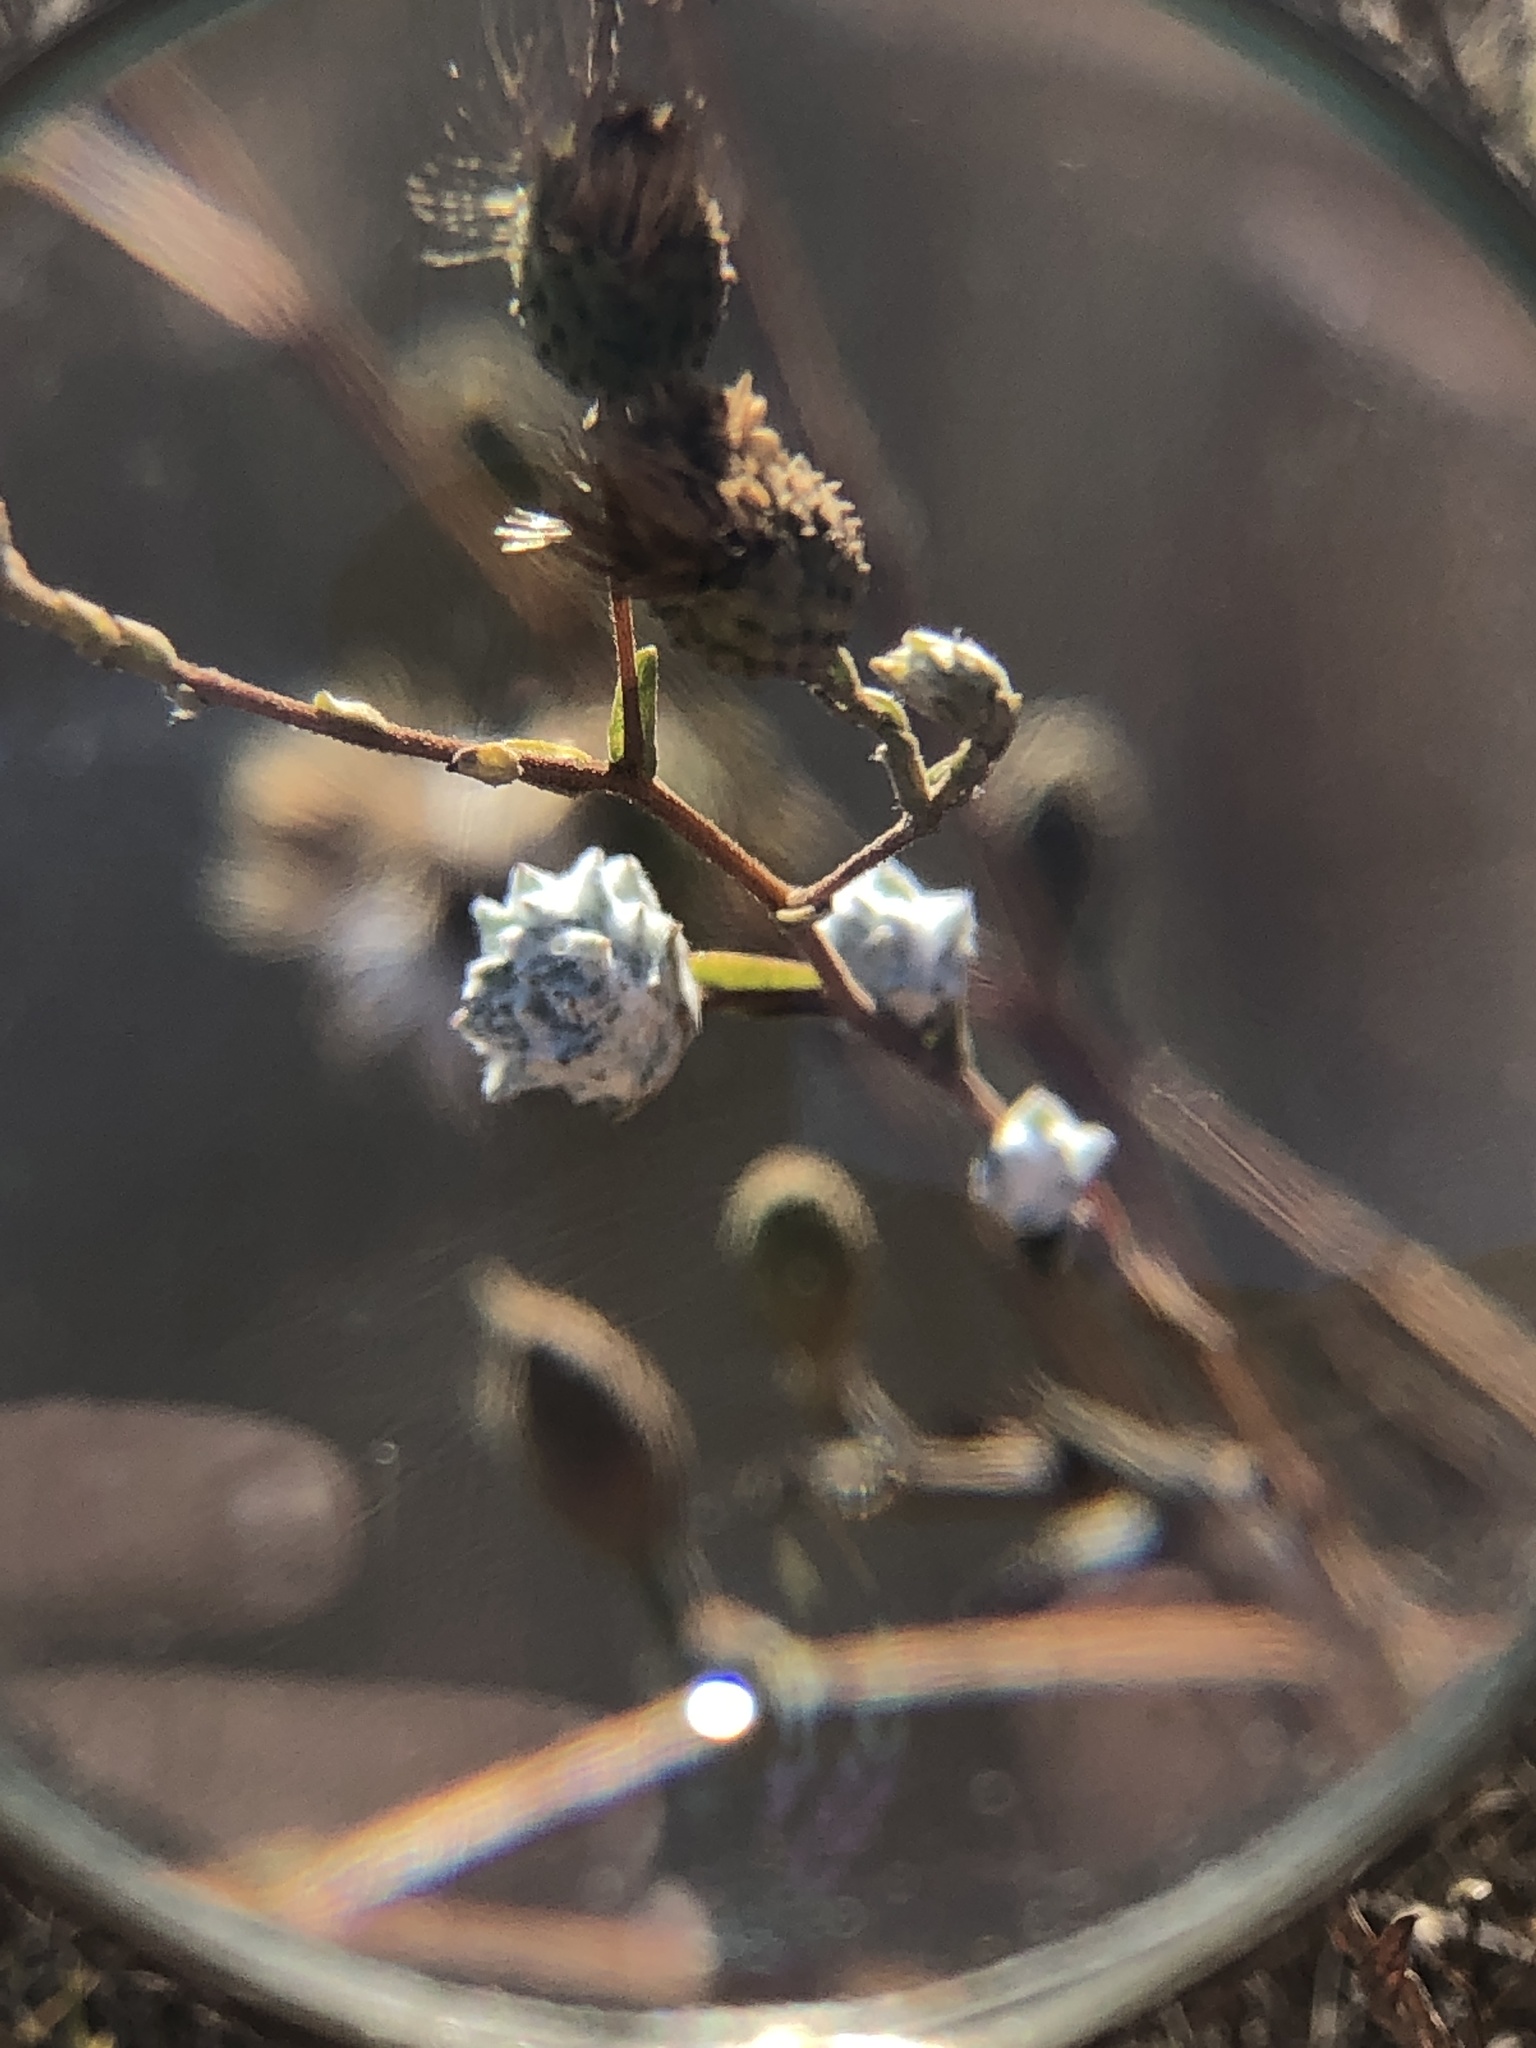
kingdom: Plantae
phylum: Tracheophyta
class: Magnoliopsida
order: Asterales
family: Asteraceae
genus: Corethrogyne
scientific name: Corethrogyne filaginifolia
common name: Sand-aster
